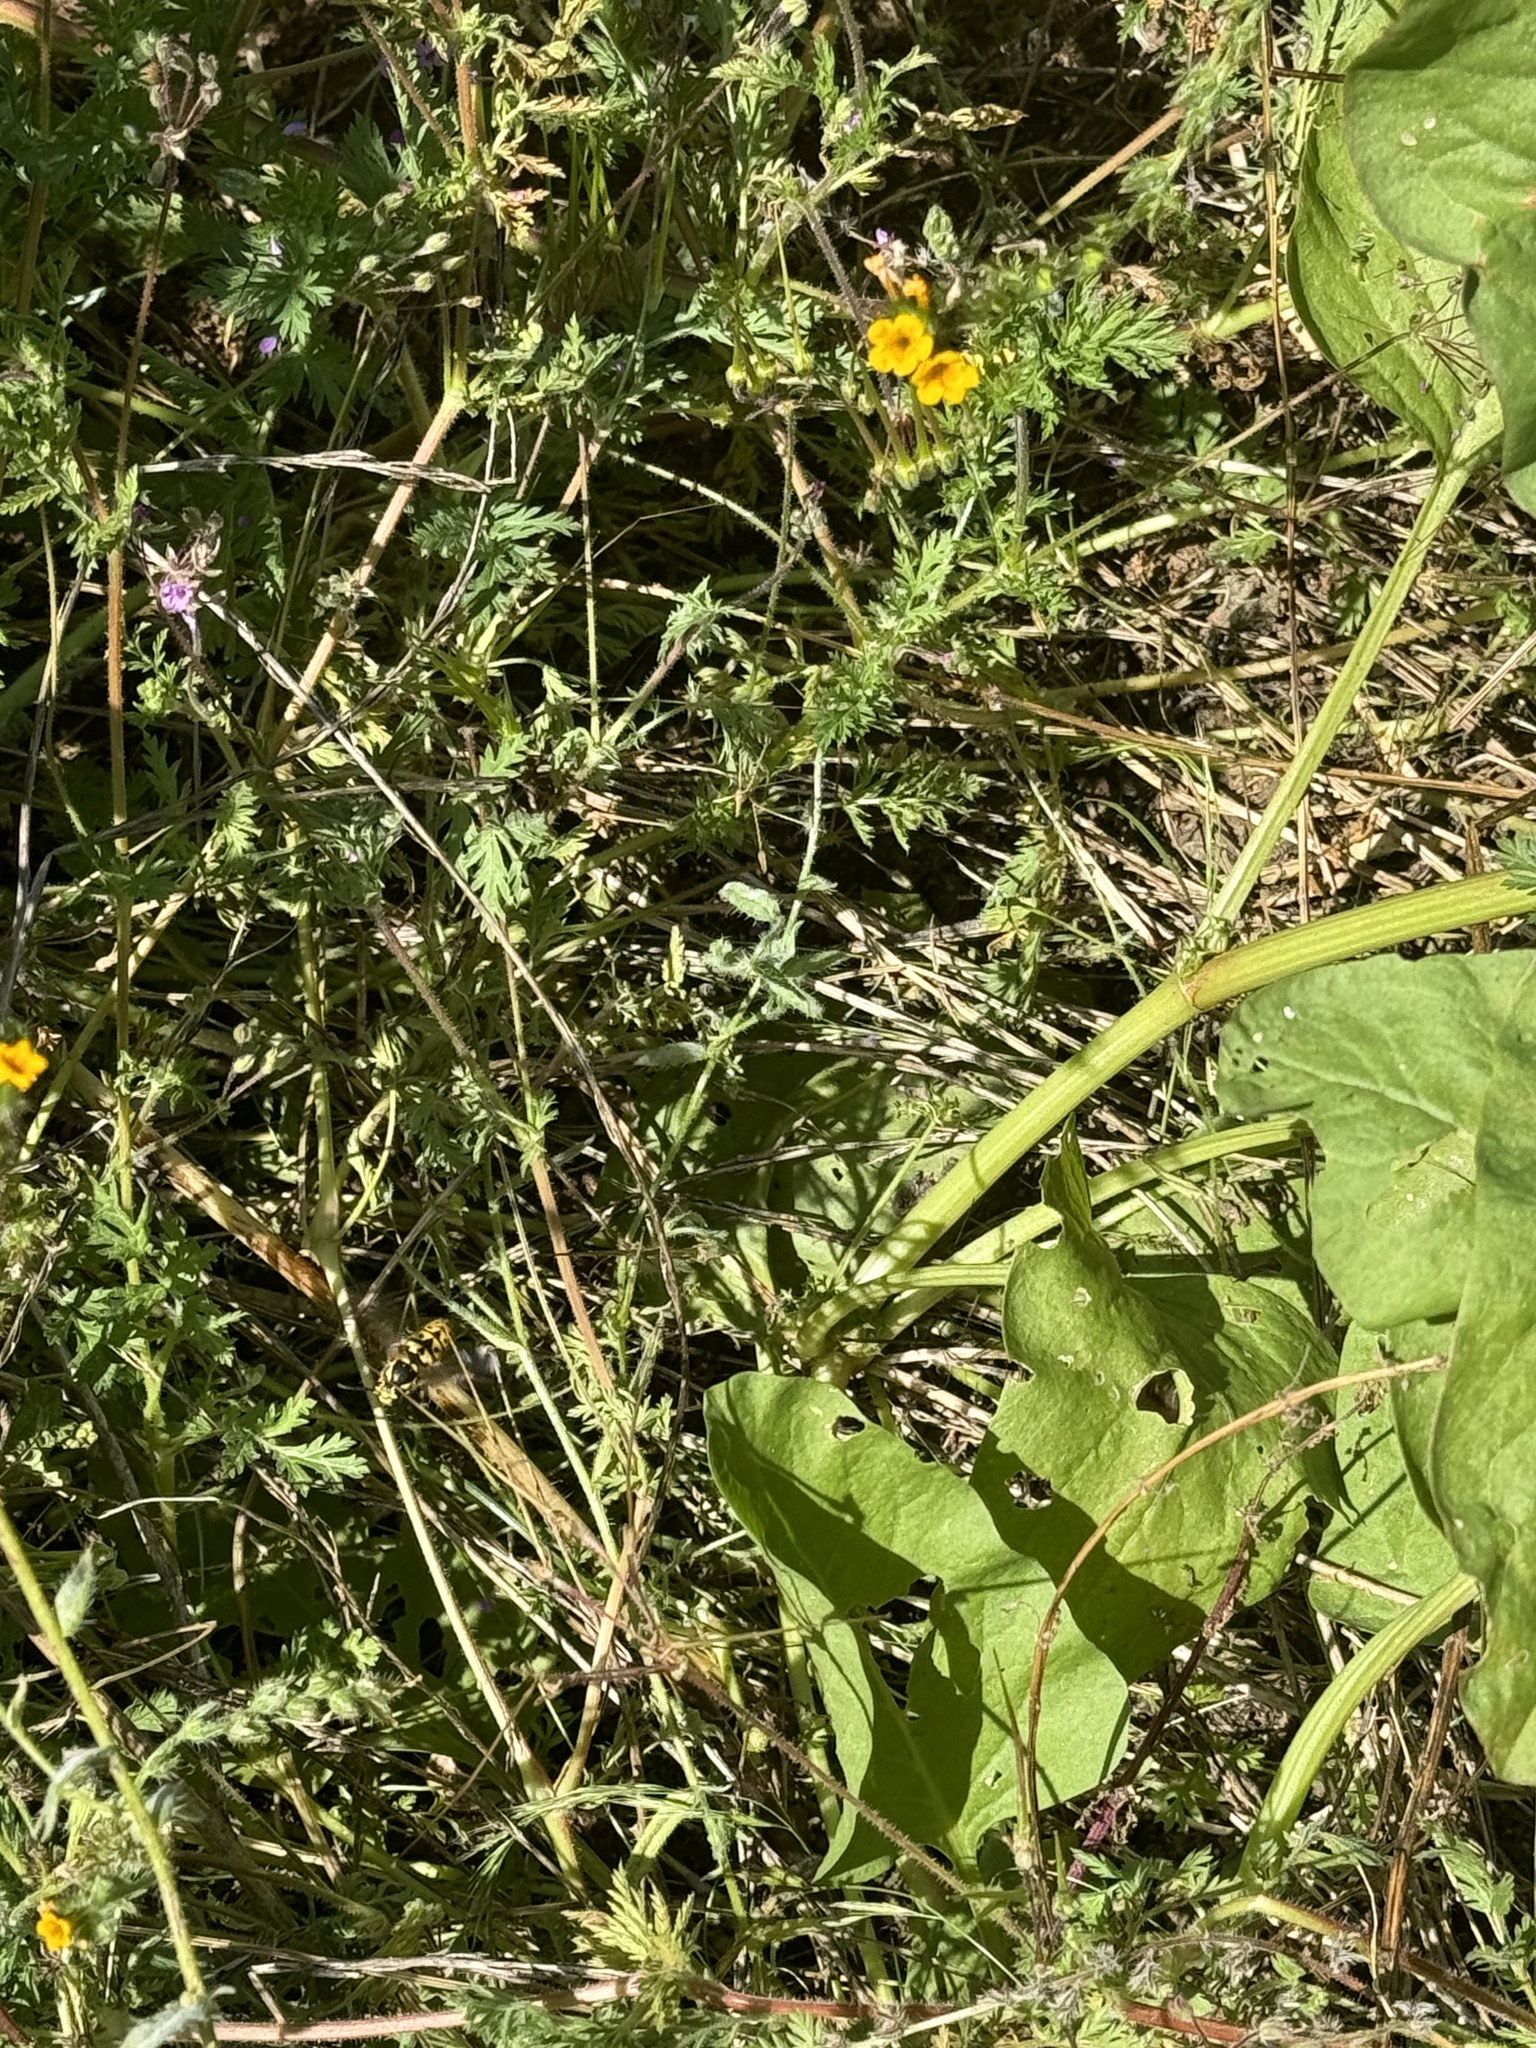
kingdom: Animalia
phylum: Arthropoda
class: Insecta
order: Hymenoptera
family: Vespidae
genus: Vespula
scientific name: Vespula pensylvanica
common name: Western yellowjacket
